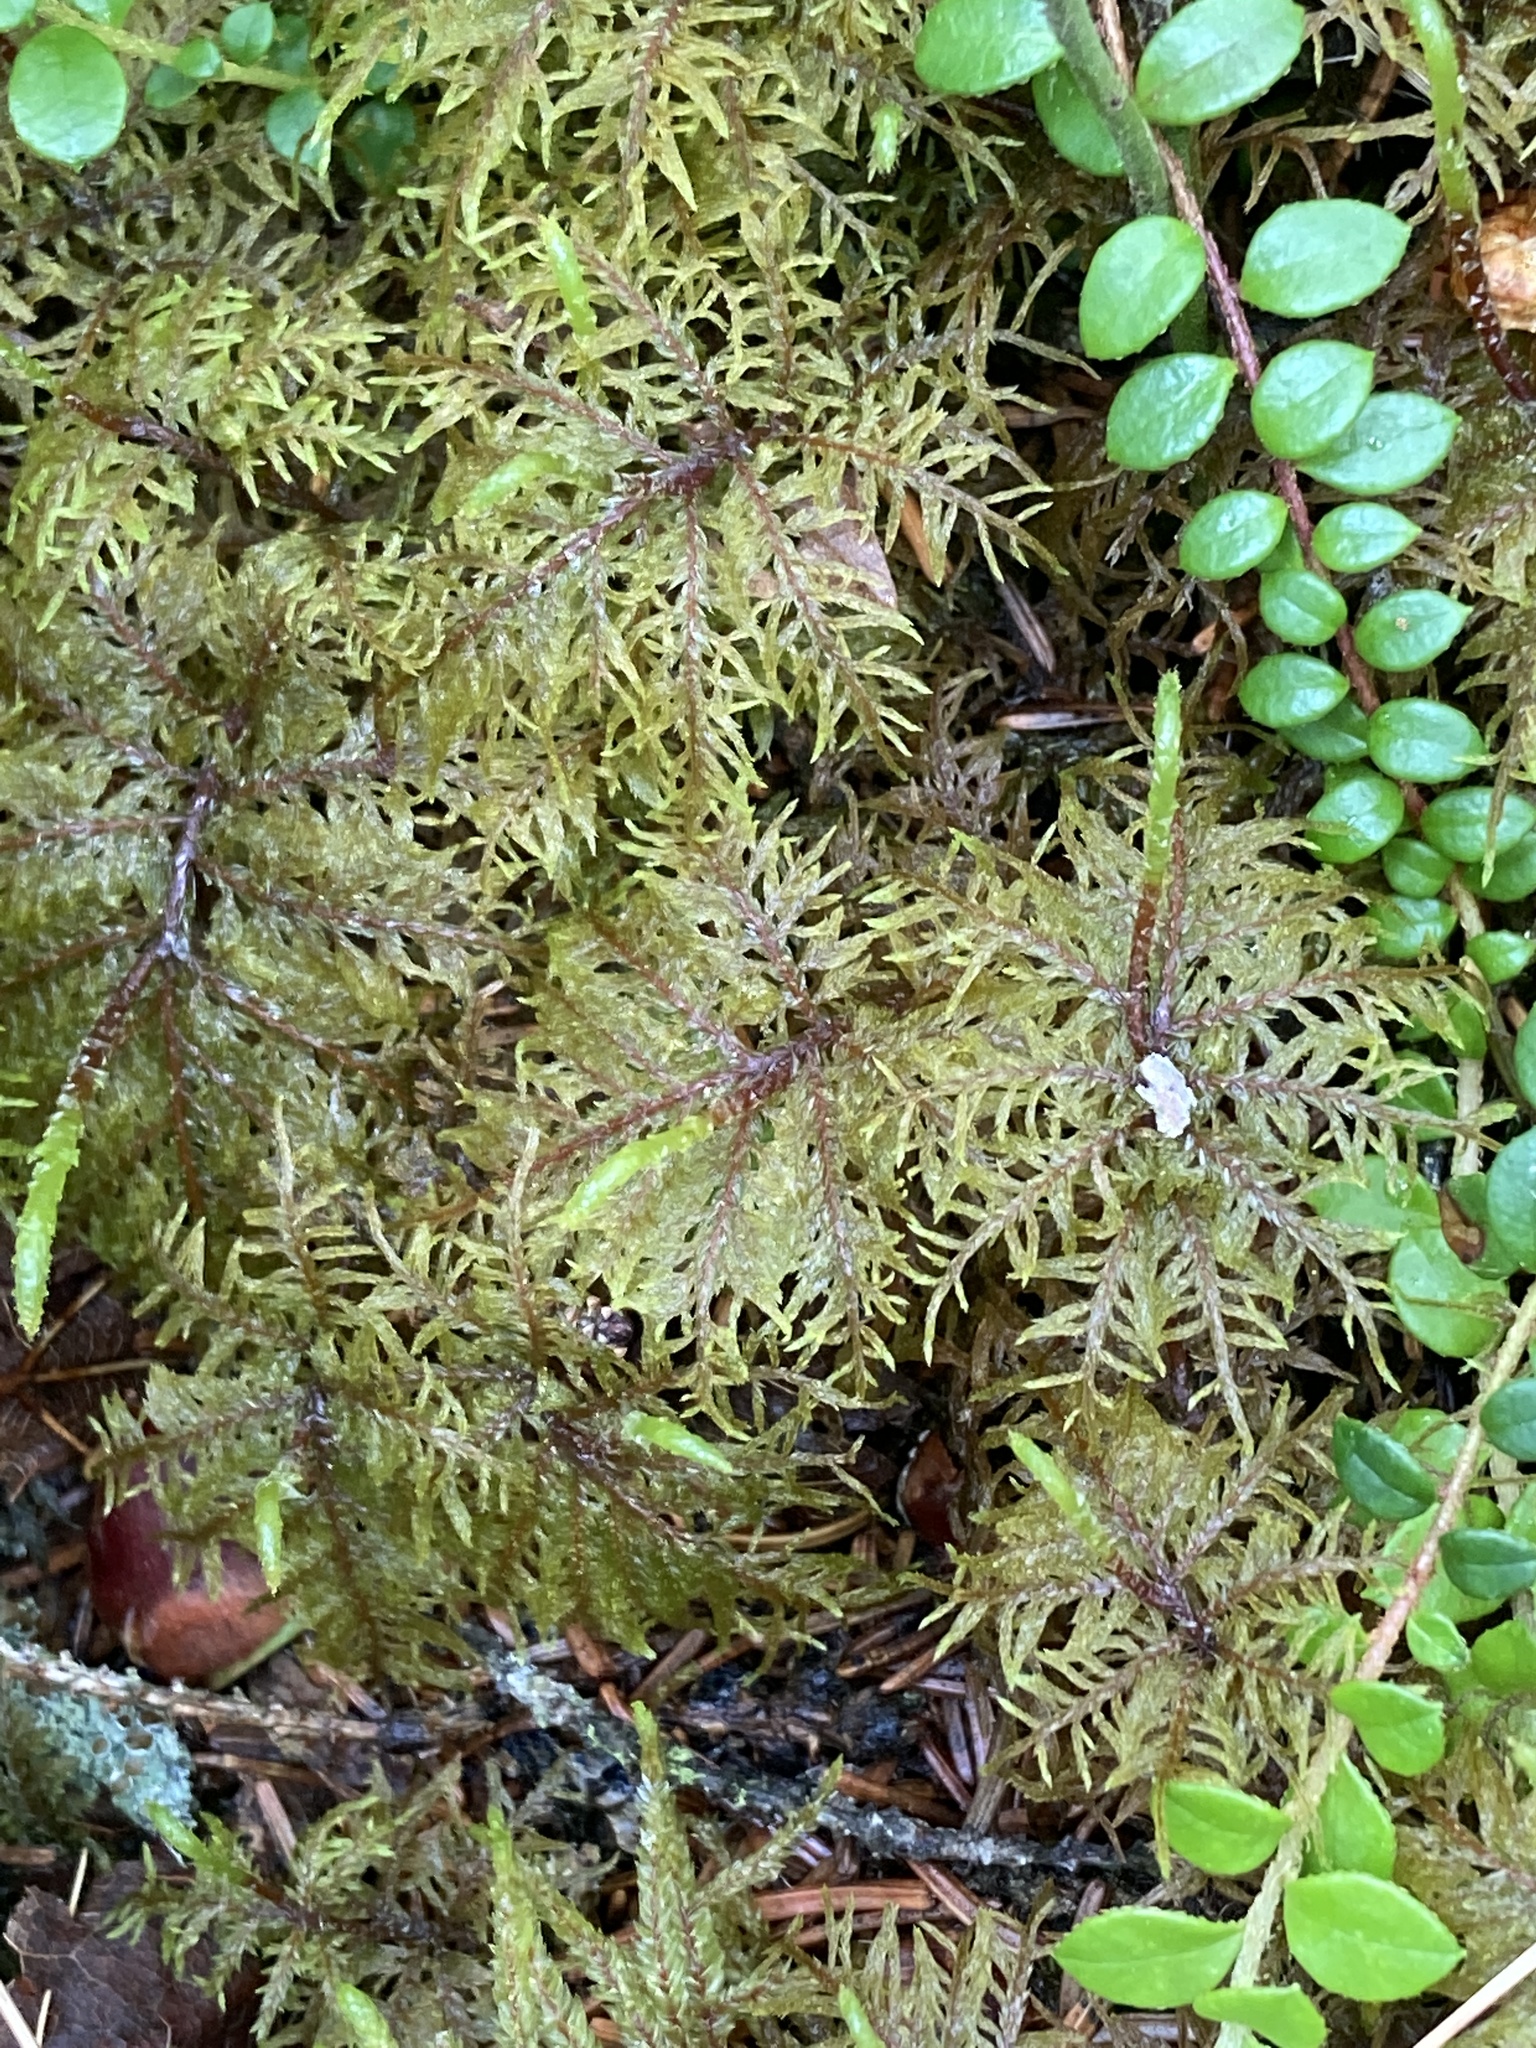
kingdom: Plantae
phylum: Bryophyta
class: Bryopsida
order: Hypnales
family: Hylocomiaceae
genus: Hylocomium
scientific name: Hylocomium splendens
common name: Stairstep moss
